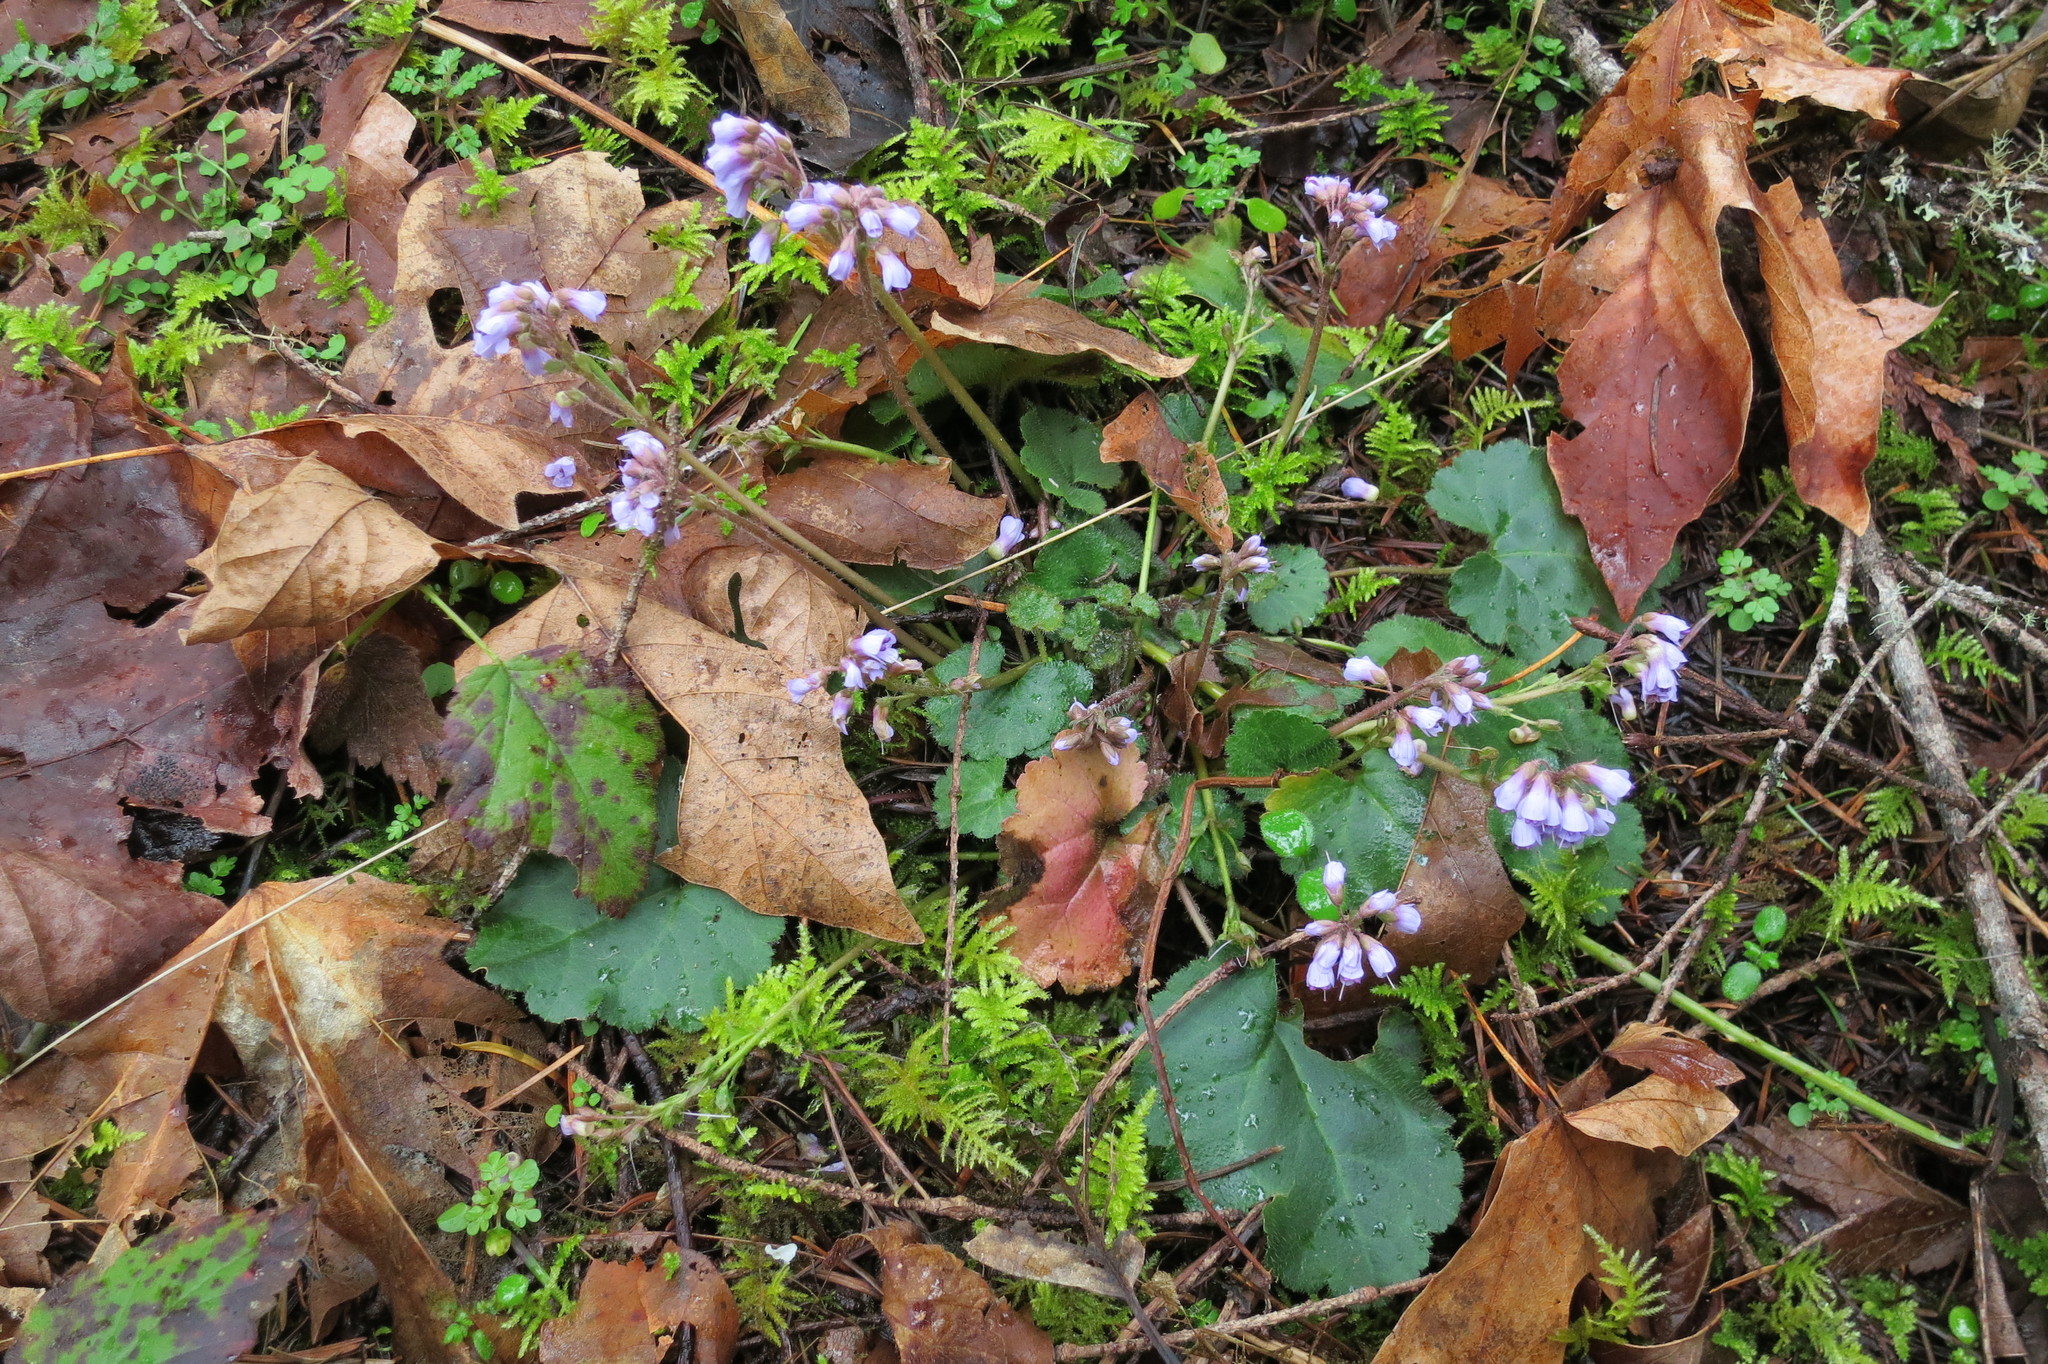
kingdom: Plantae
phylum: Tracheophyta
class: Magnoliopsida
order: Lamiales
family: Plantaginaceae
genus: Synthyris
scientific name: Synthyris reniformis
